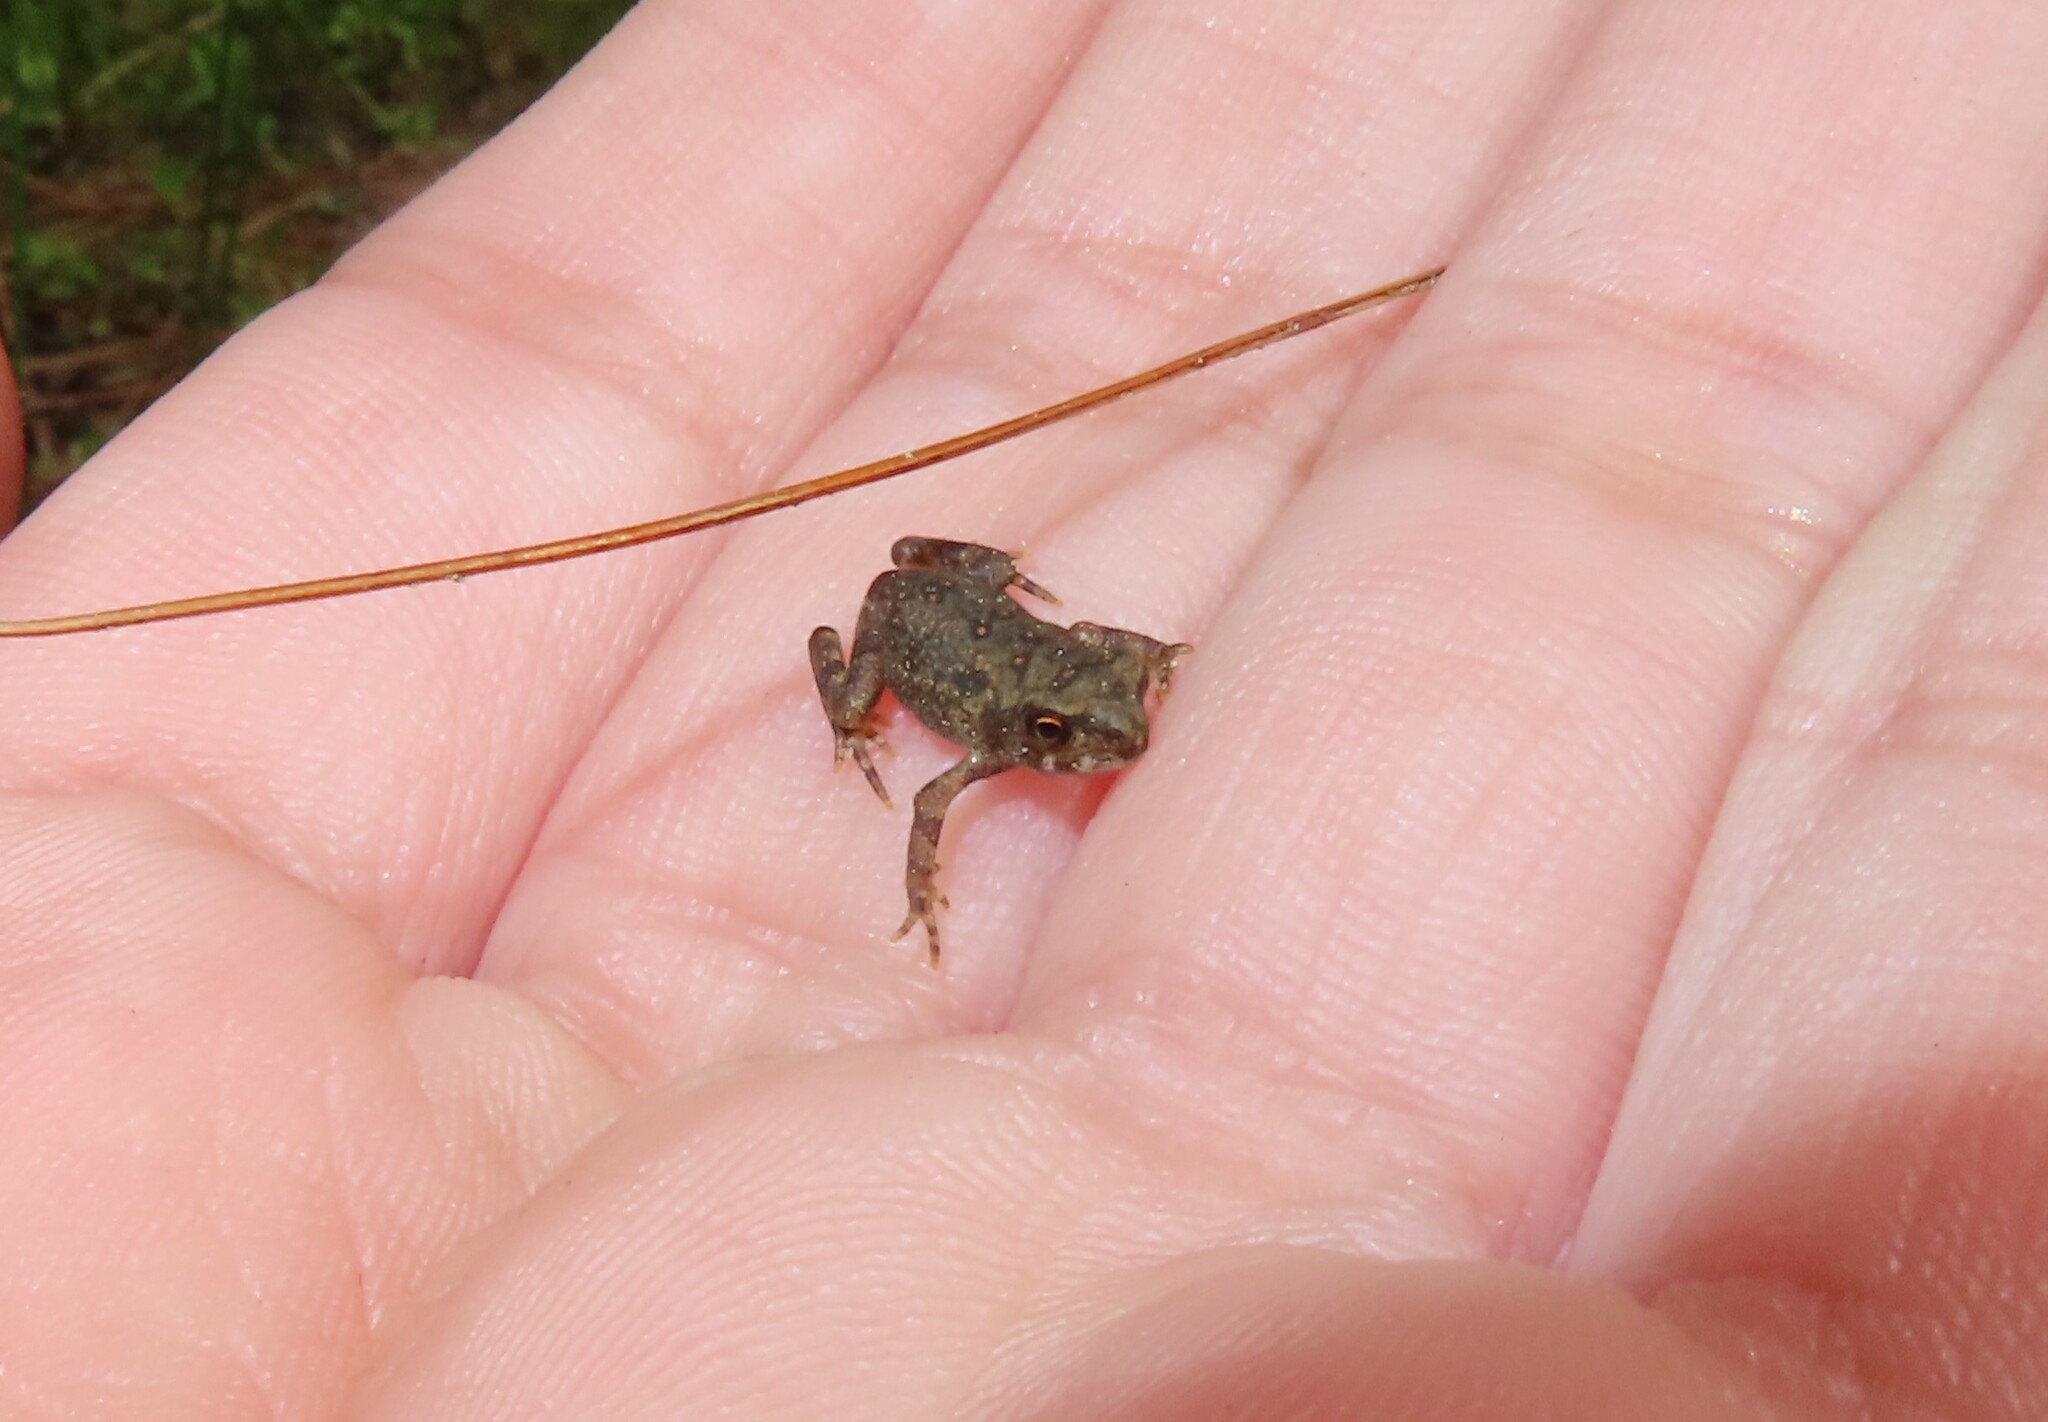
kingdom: Animalia
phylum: Chordata
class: Amphibia
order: Anura
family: Bufonidae
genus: Anaxyrus
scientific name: Anaxyrus americanus
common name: American toad
